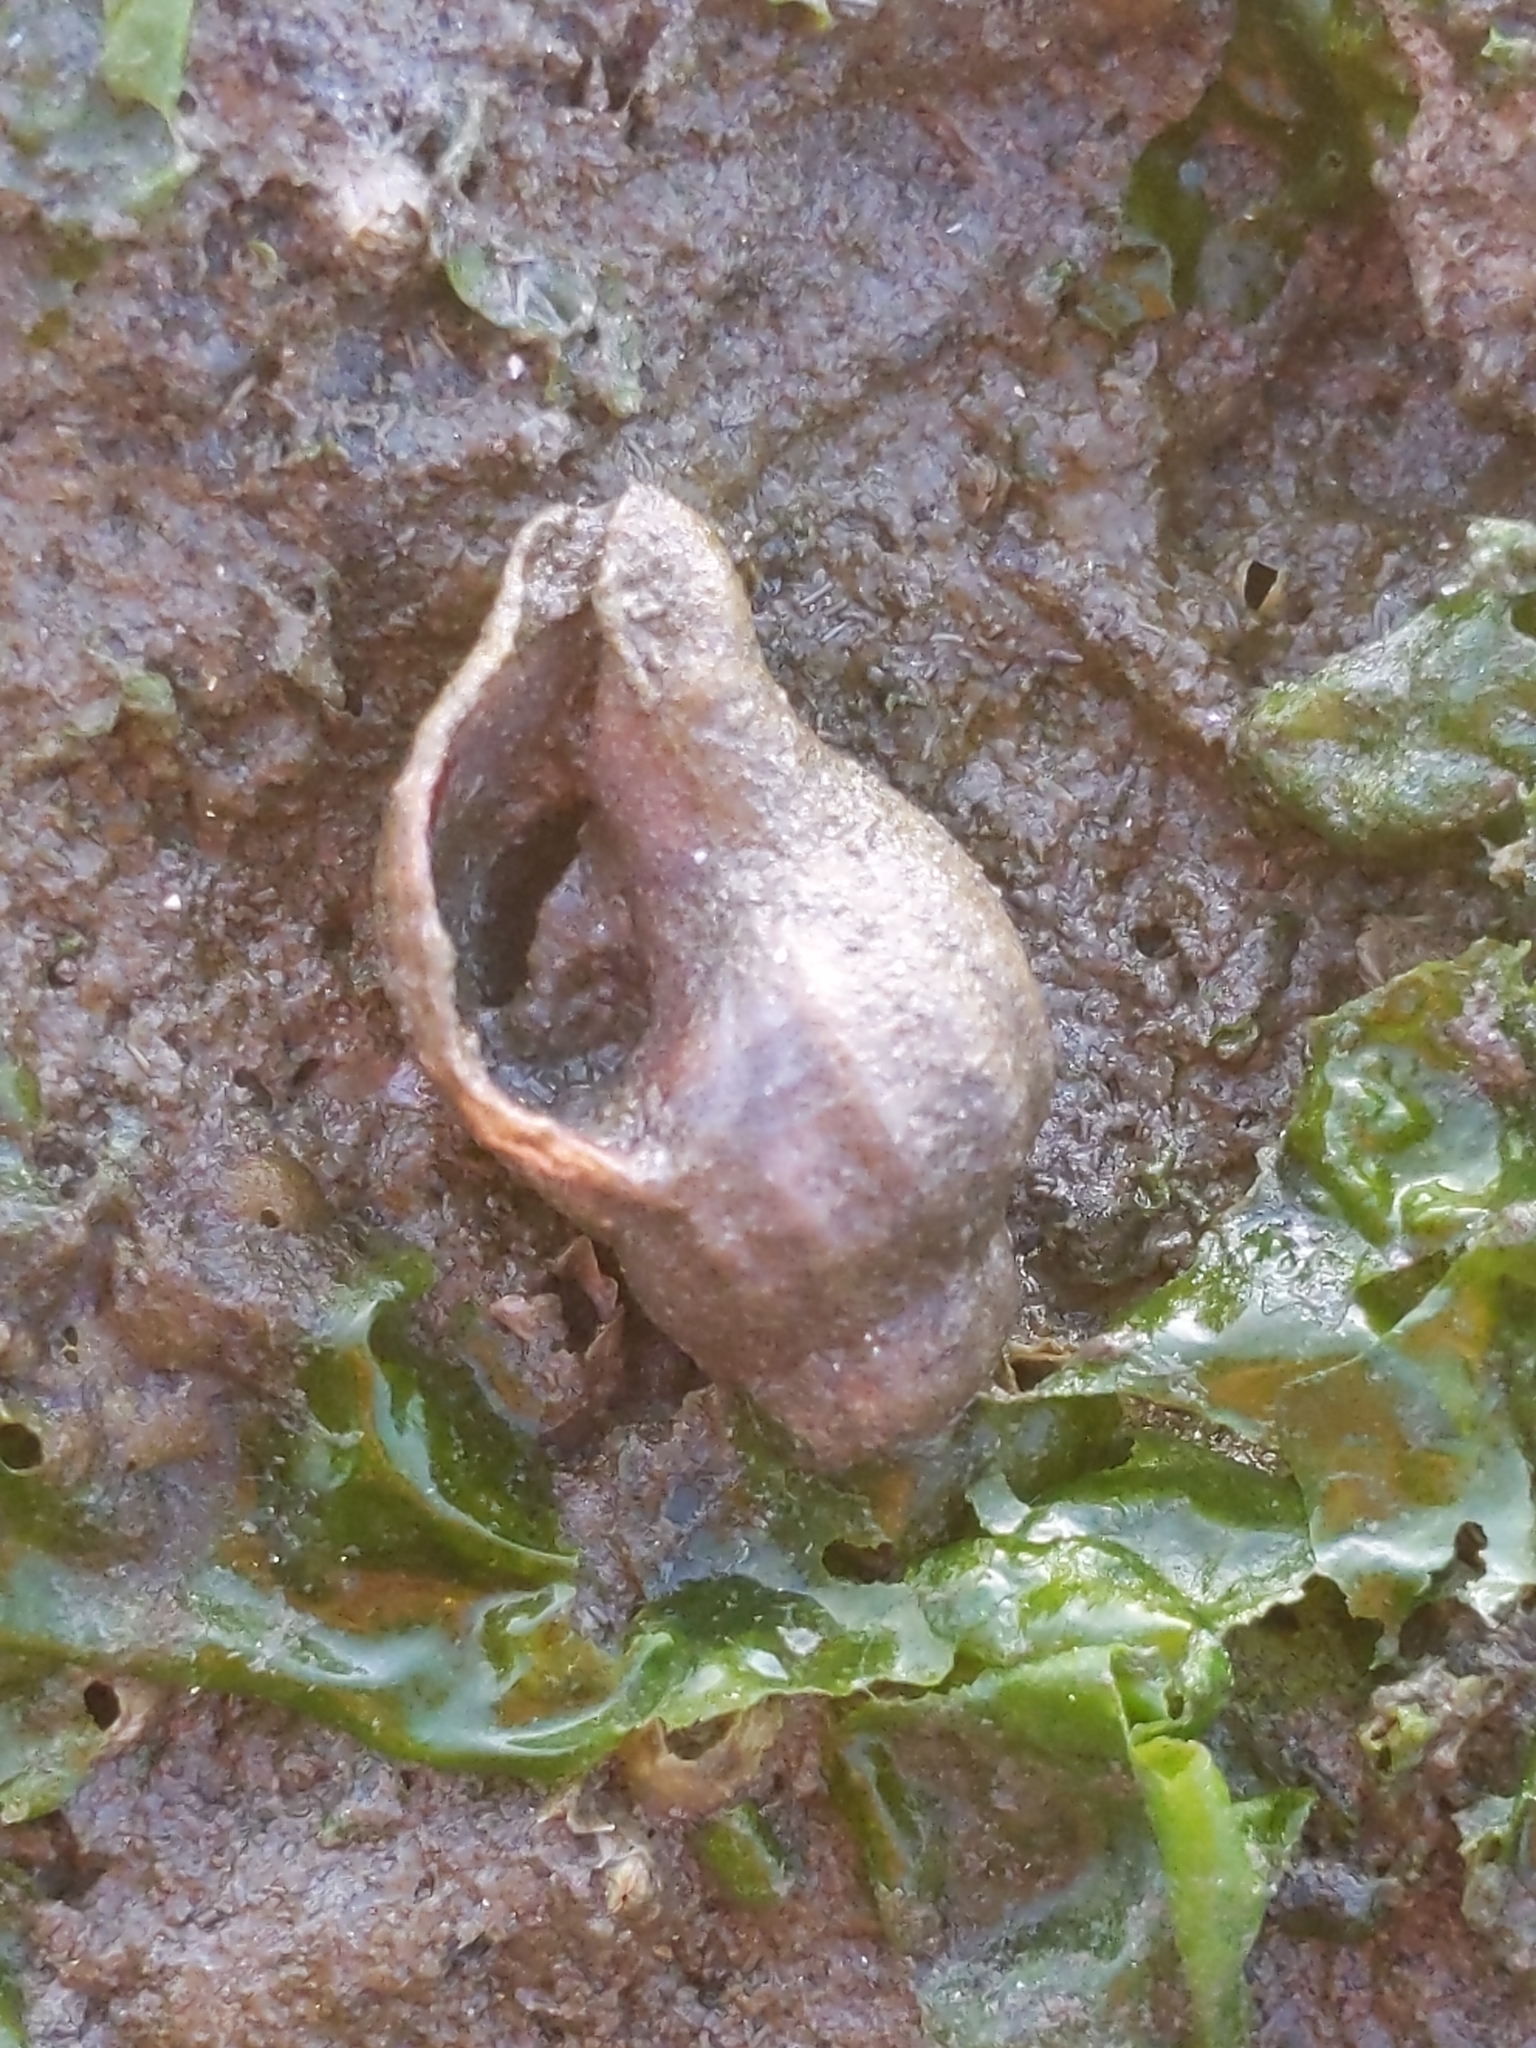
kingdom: Animalia
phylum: Mollusca
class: Gastropoda
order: Neogastropoda
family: Muricidae
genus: Urosalpinx
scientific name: Urosalpinx cinerea
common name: American sting winkle
